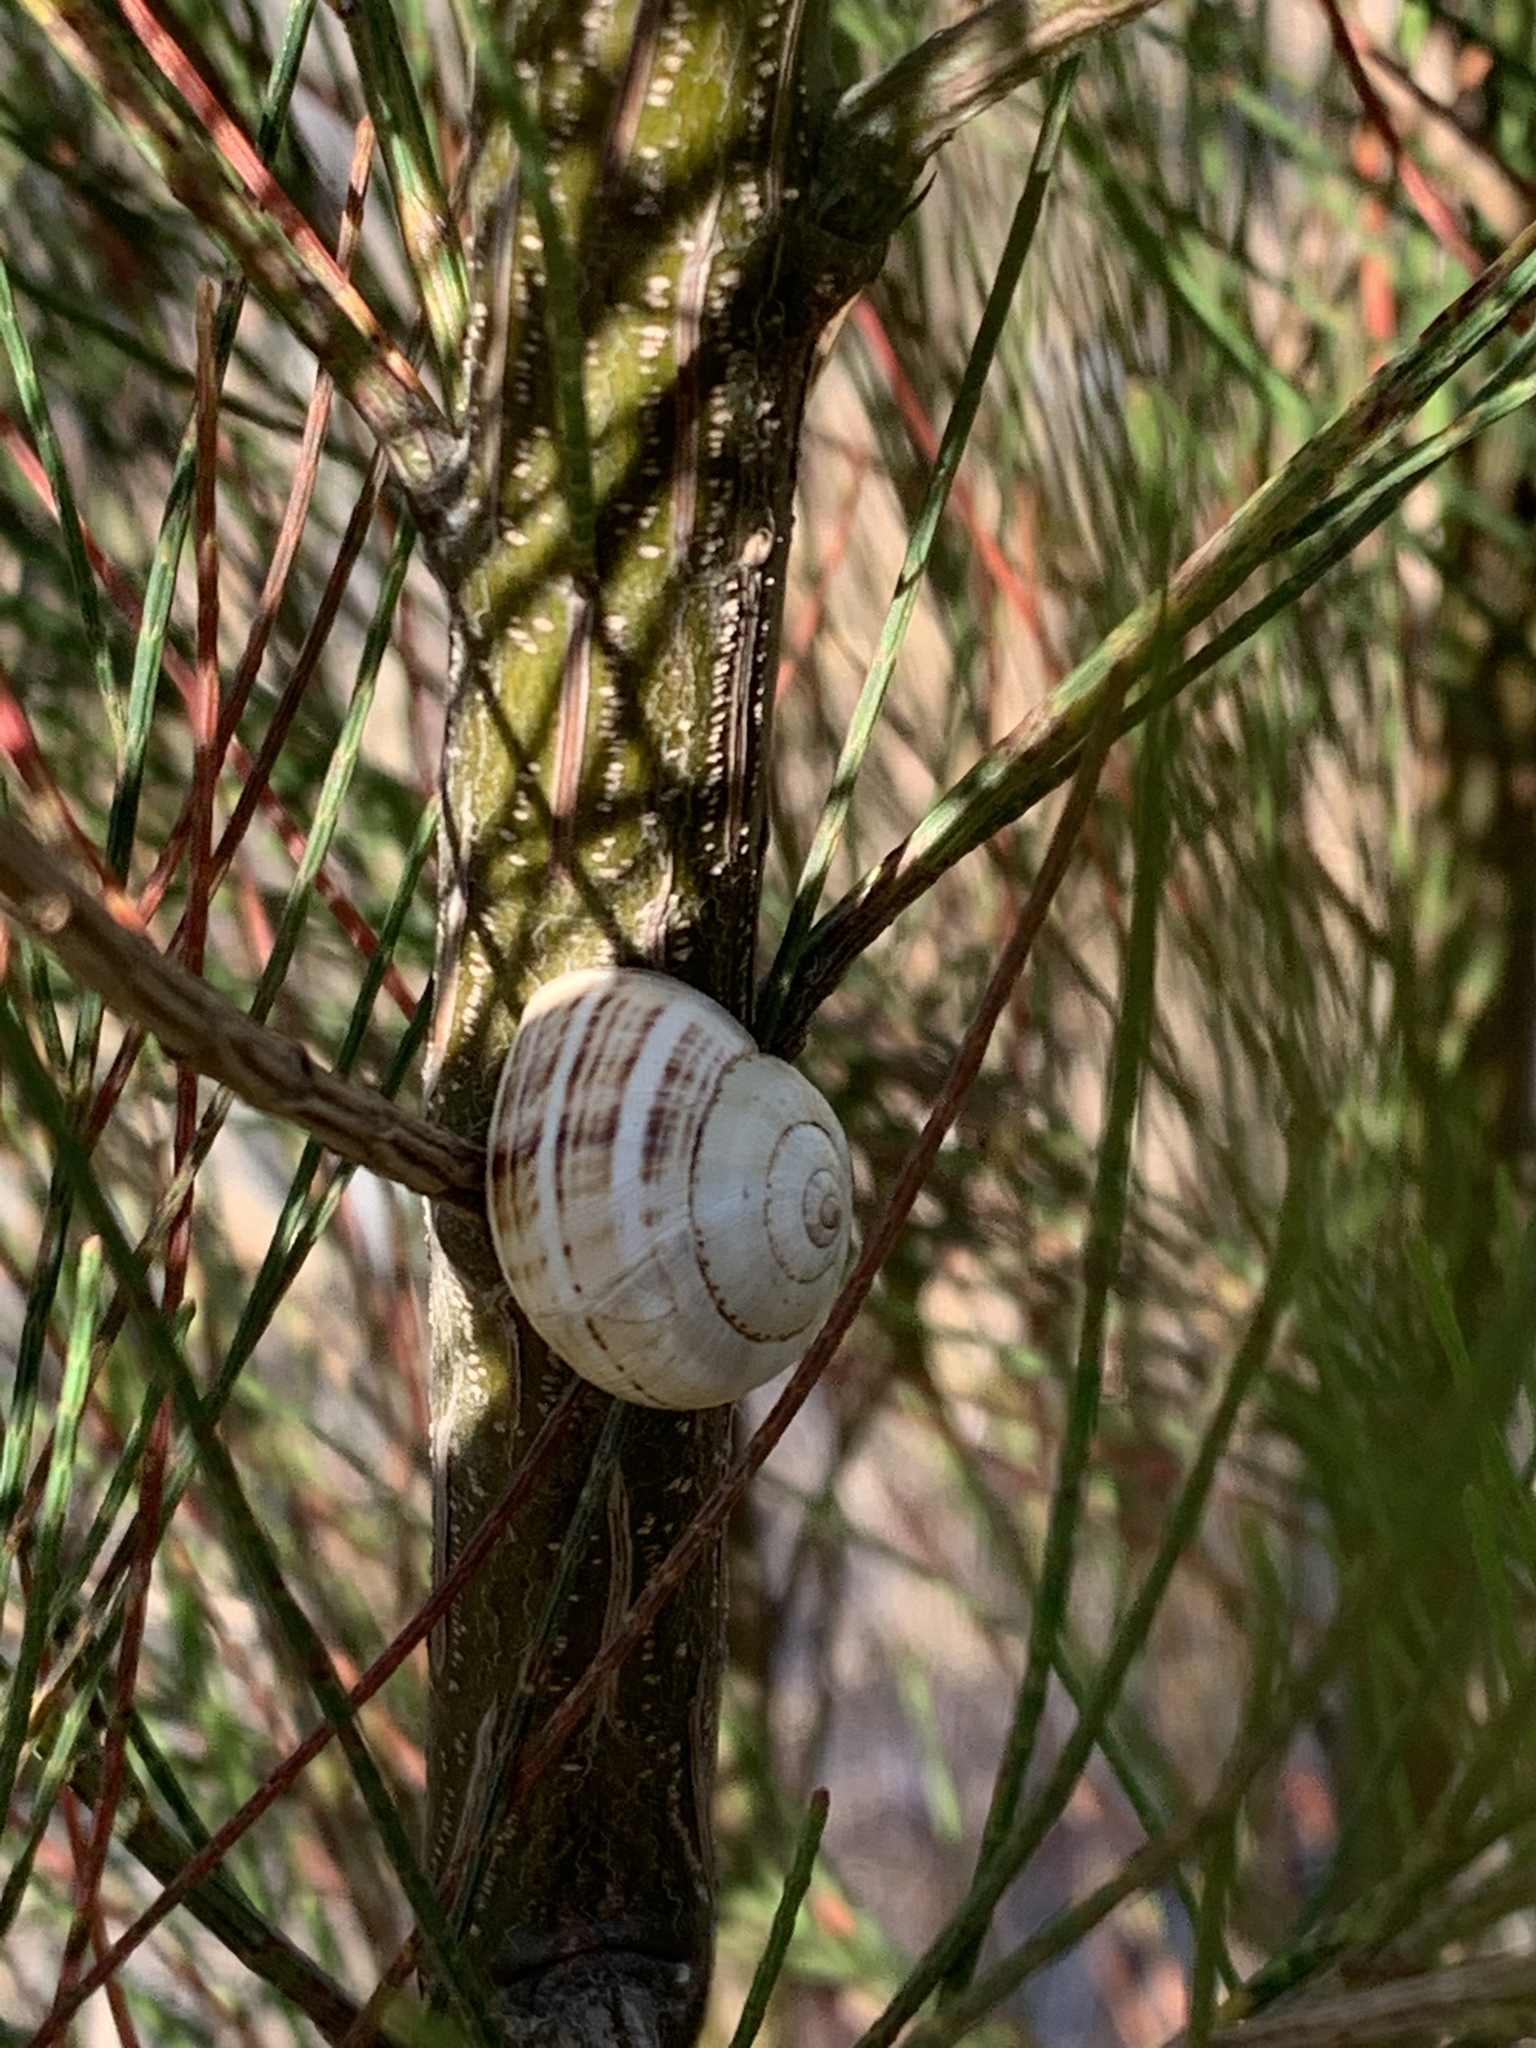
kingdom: Animalia
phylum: Mollusca
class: Gastropoda
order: Stylommatophora
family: Helicidae
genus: Theba
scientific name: Theba pisana
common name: White snail
